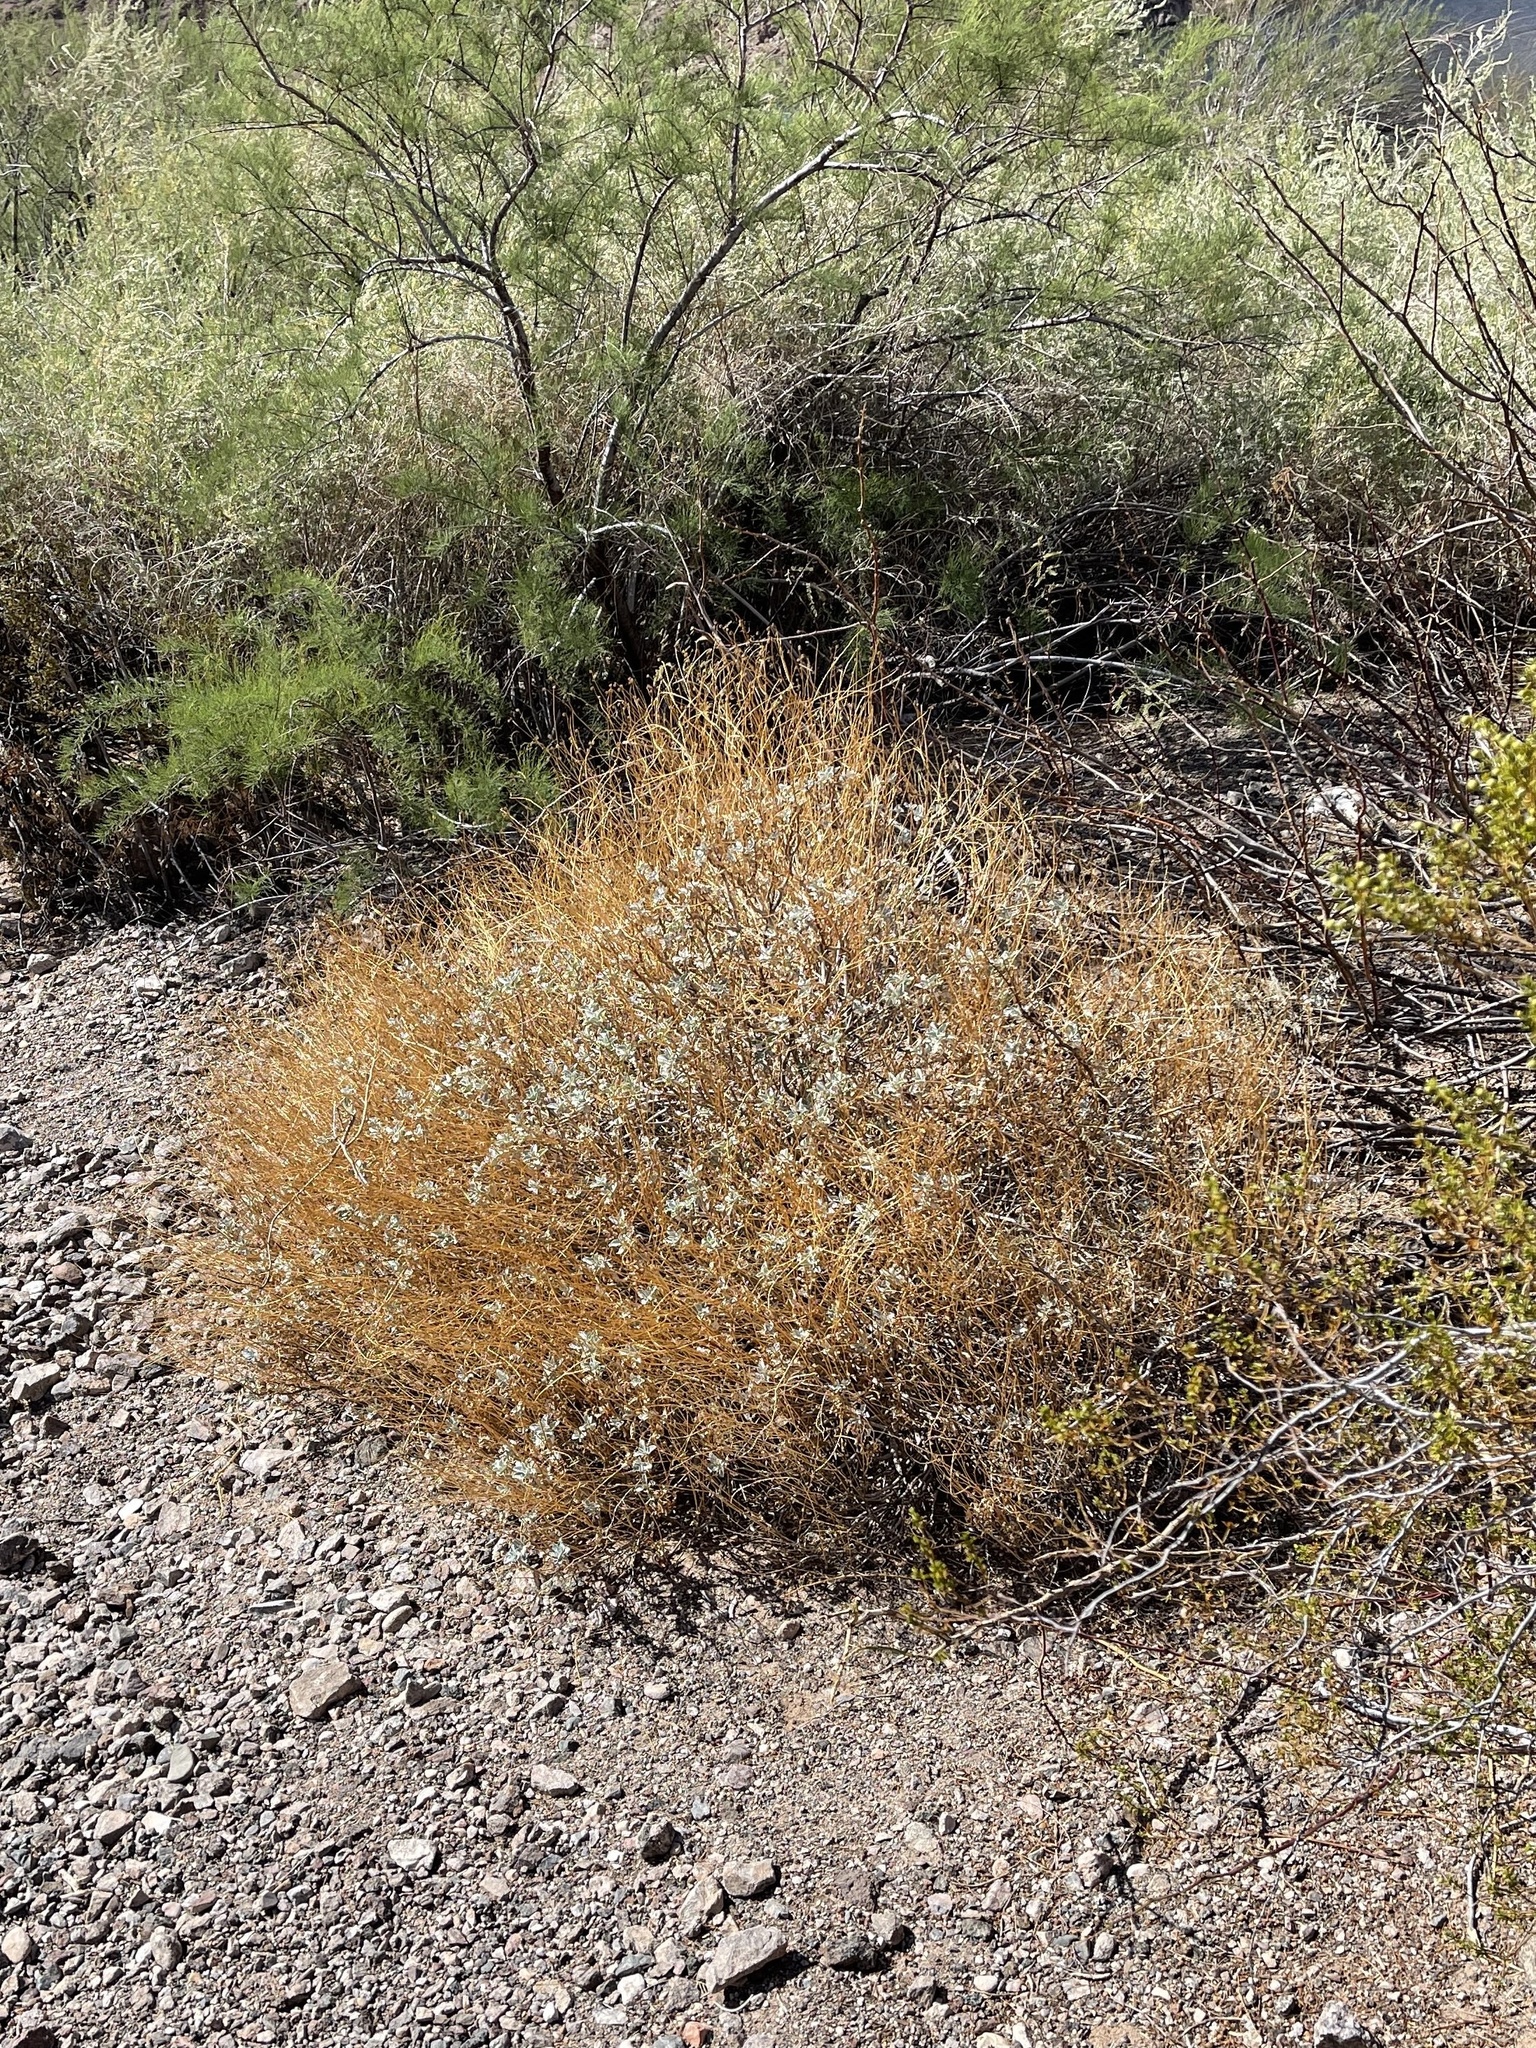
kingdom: Plantae
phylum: Tracheophyta
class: Magnoliopsida
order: Asterales
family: Asteraceae
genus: Encelia
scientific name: Encelia farinosa
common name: Brittlebush
